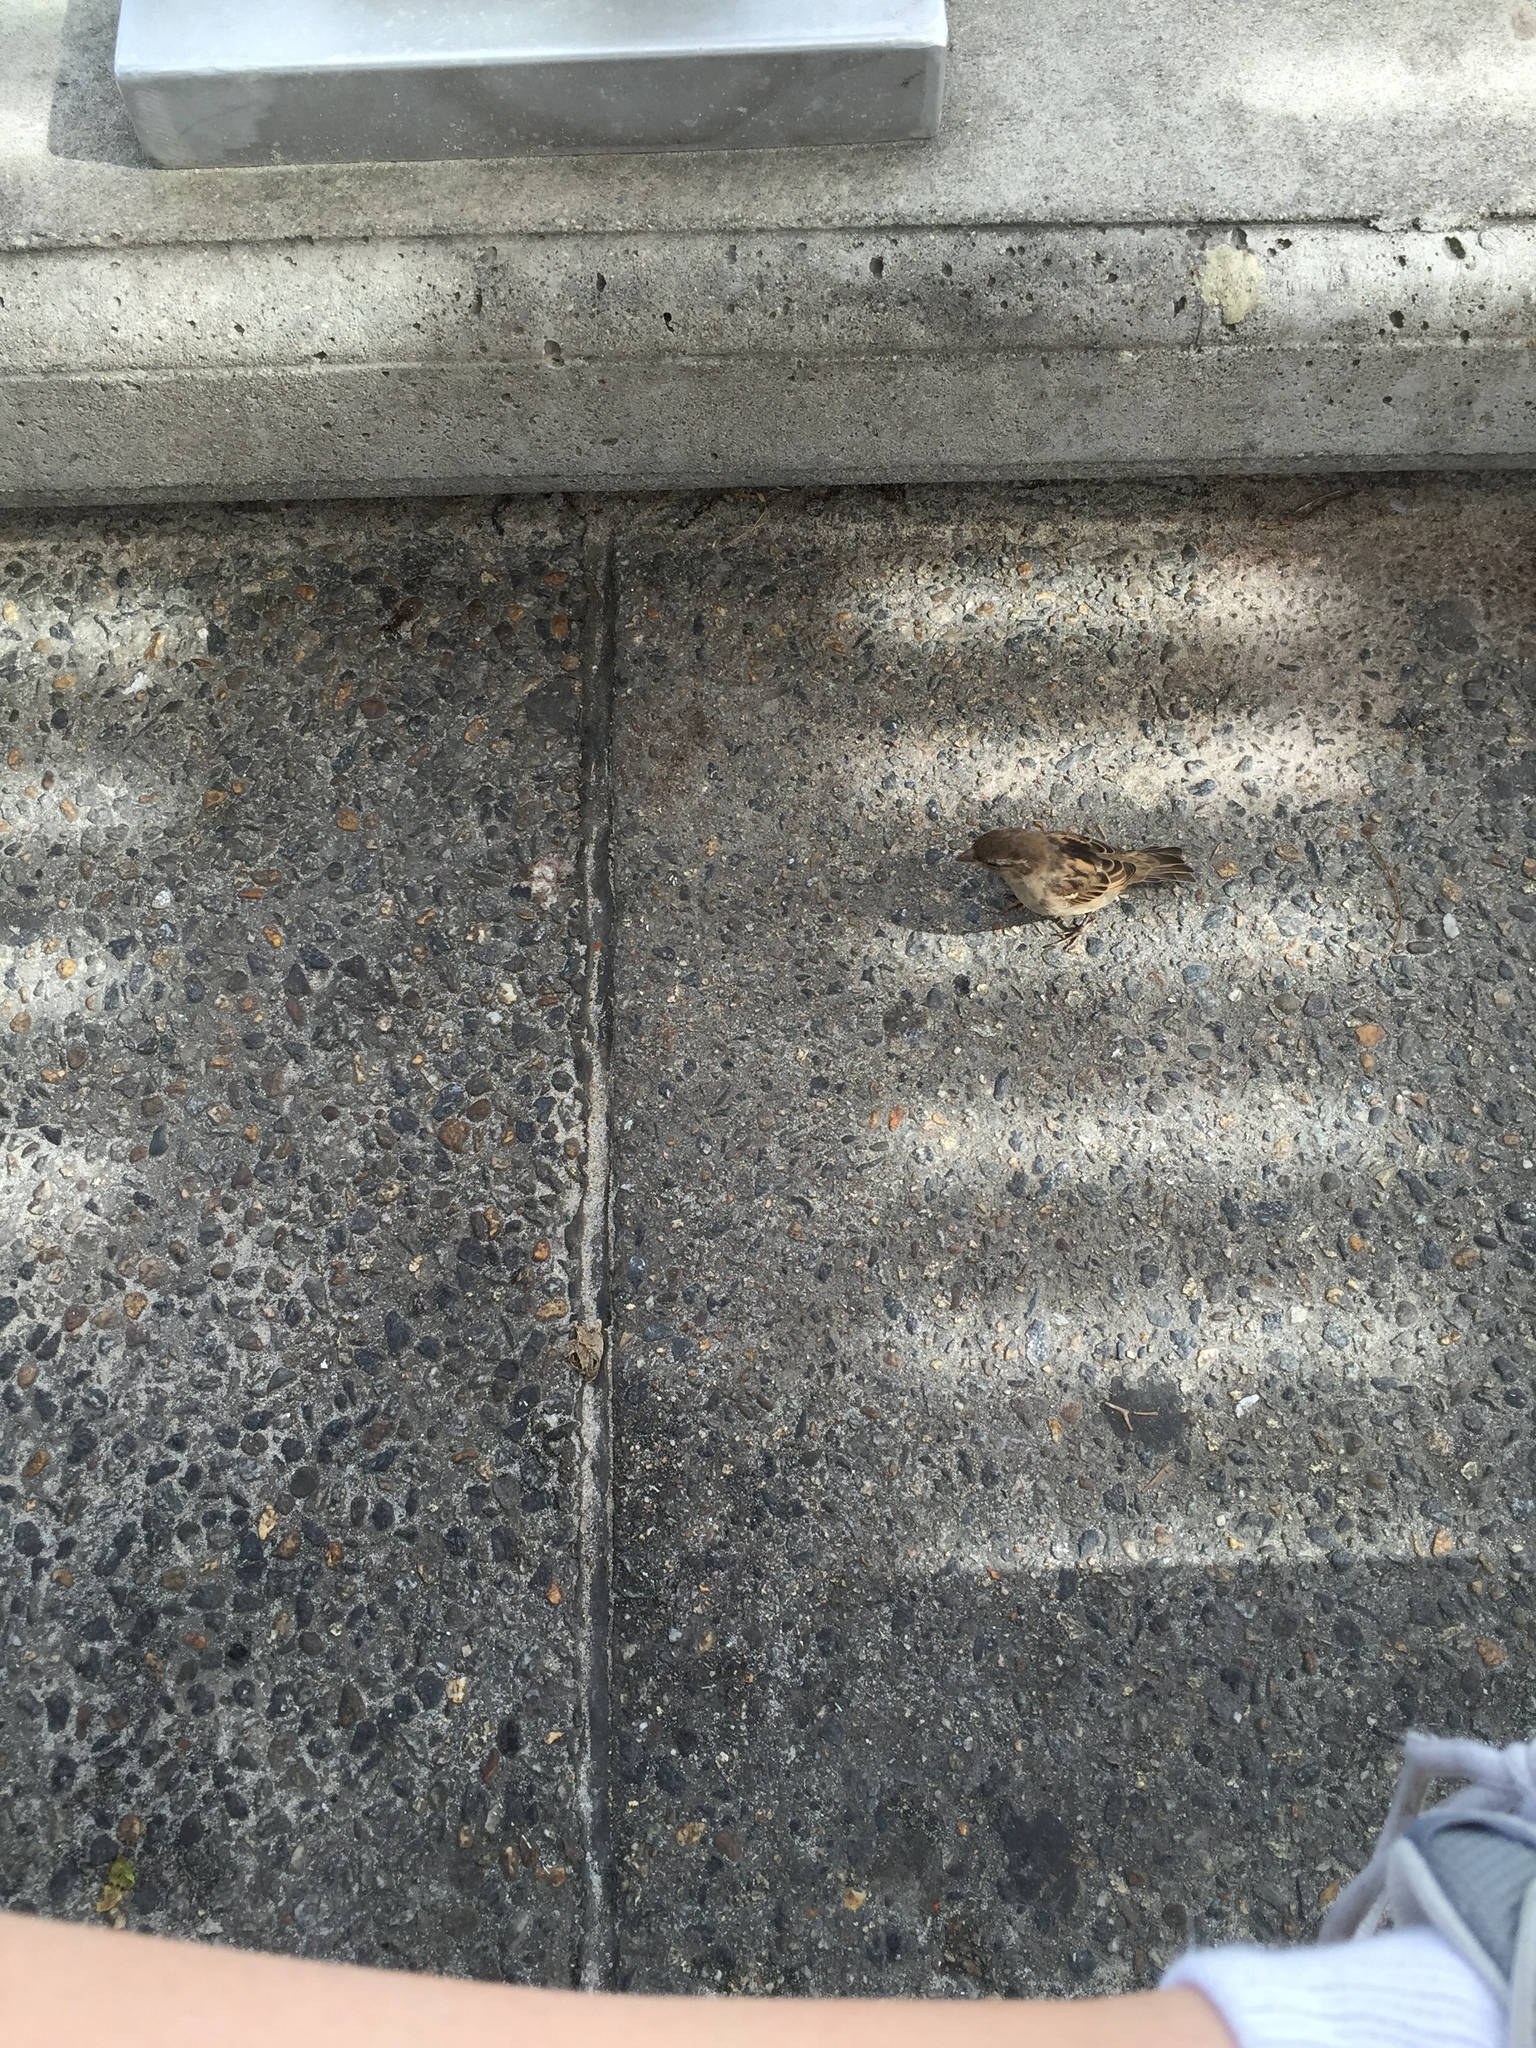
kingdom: Animalia
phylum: Chordata
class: Aves
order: Passeriformes
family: Passeridae
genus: Passer
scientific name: Passer domesticus
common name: House sparrow
